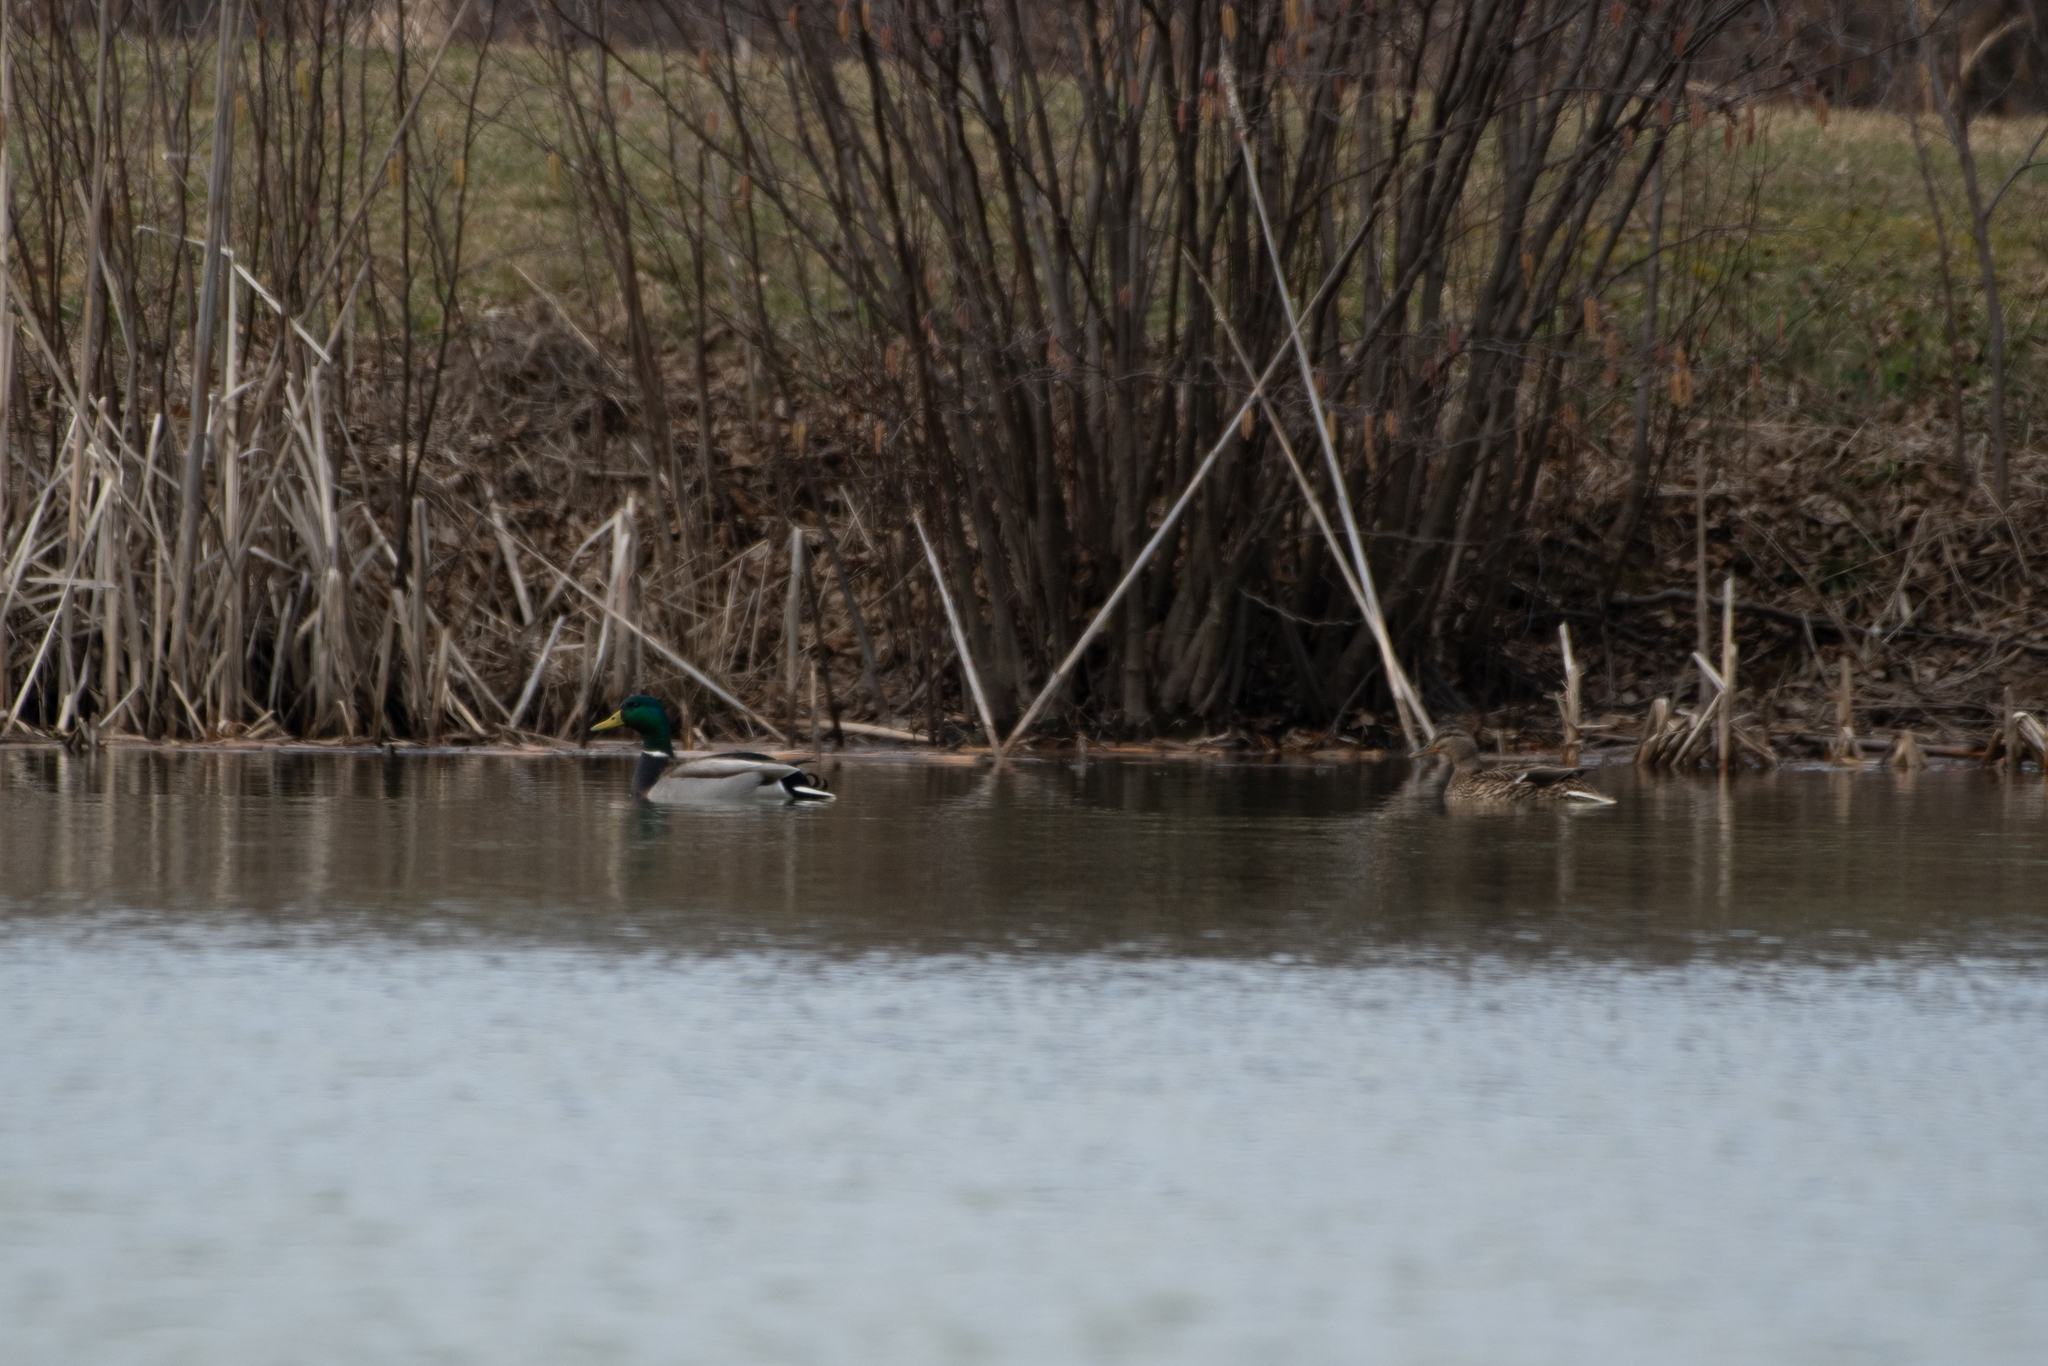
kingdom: Animalia
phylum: Chordata
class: Aves
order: Anseriformes
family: Anatidae
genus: Anas
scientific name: Anas platyrhynchos
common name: Mallard
